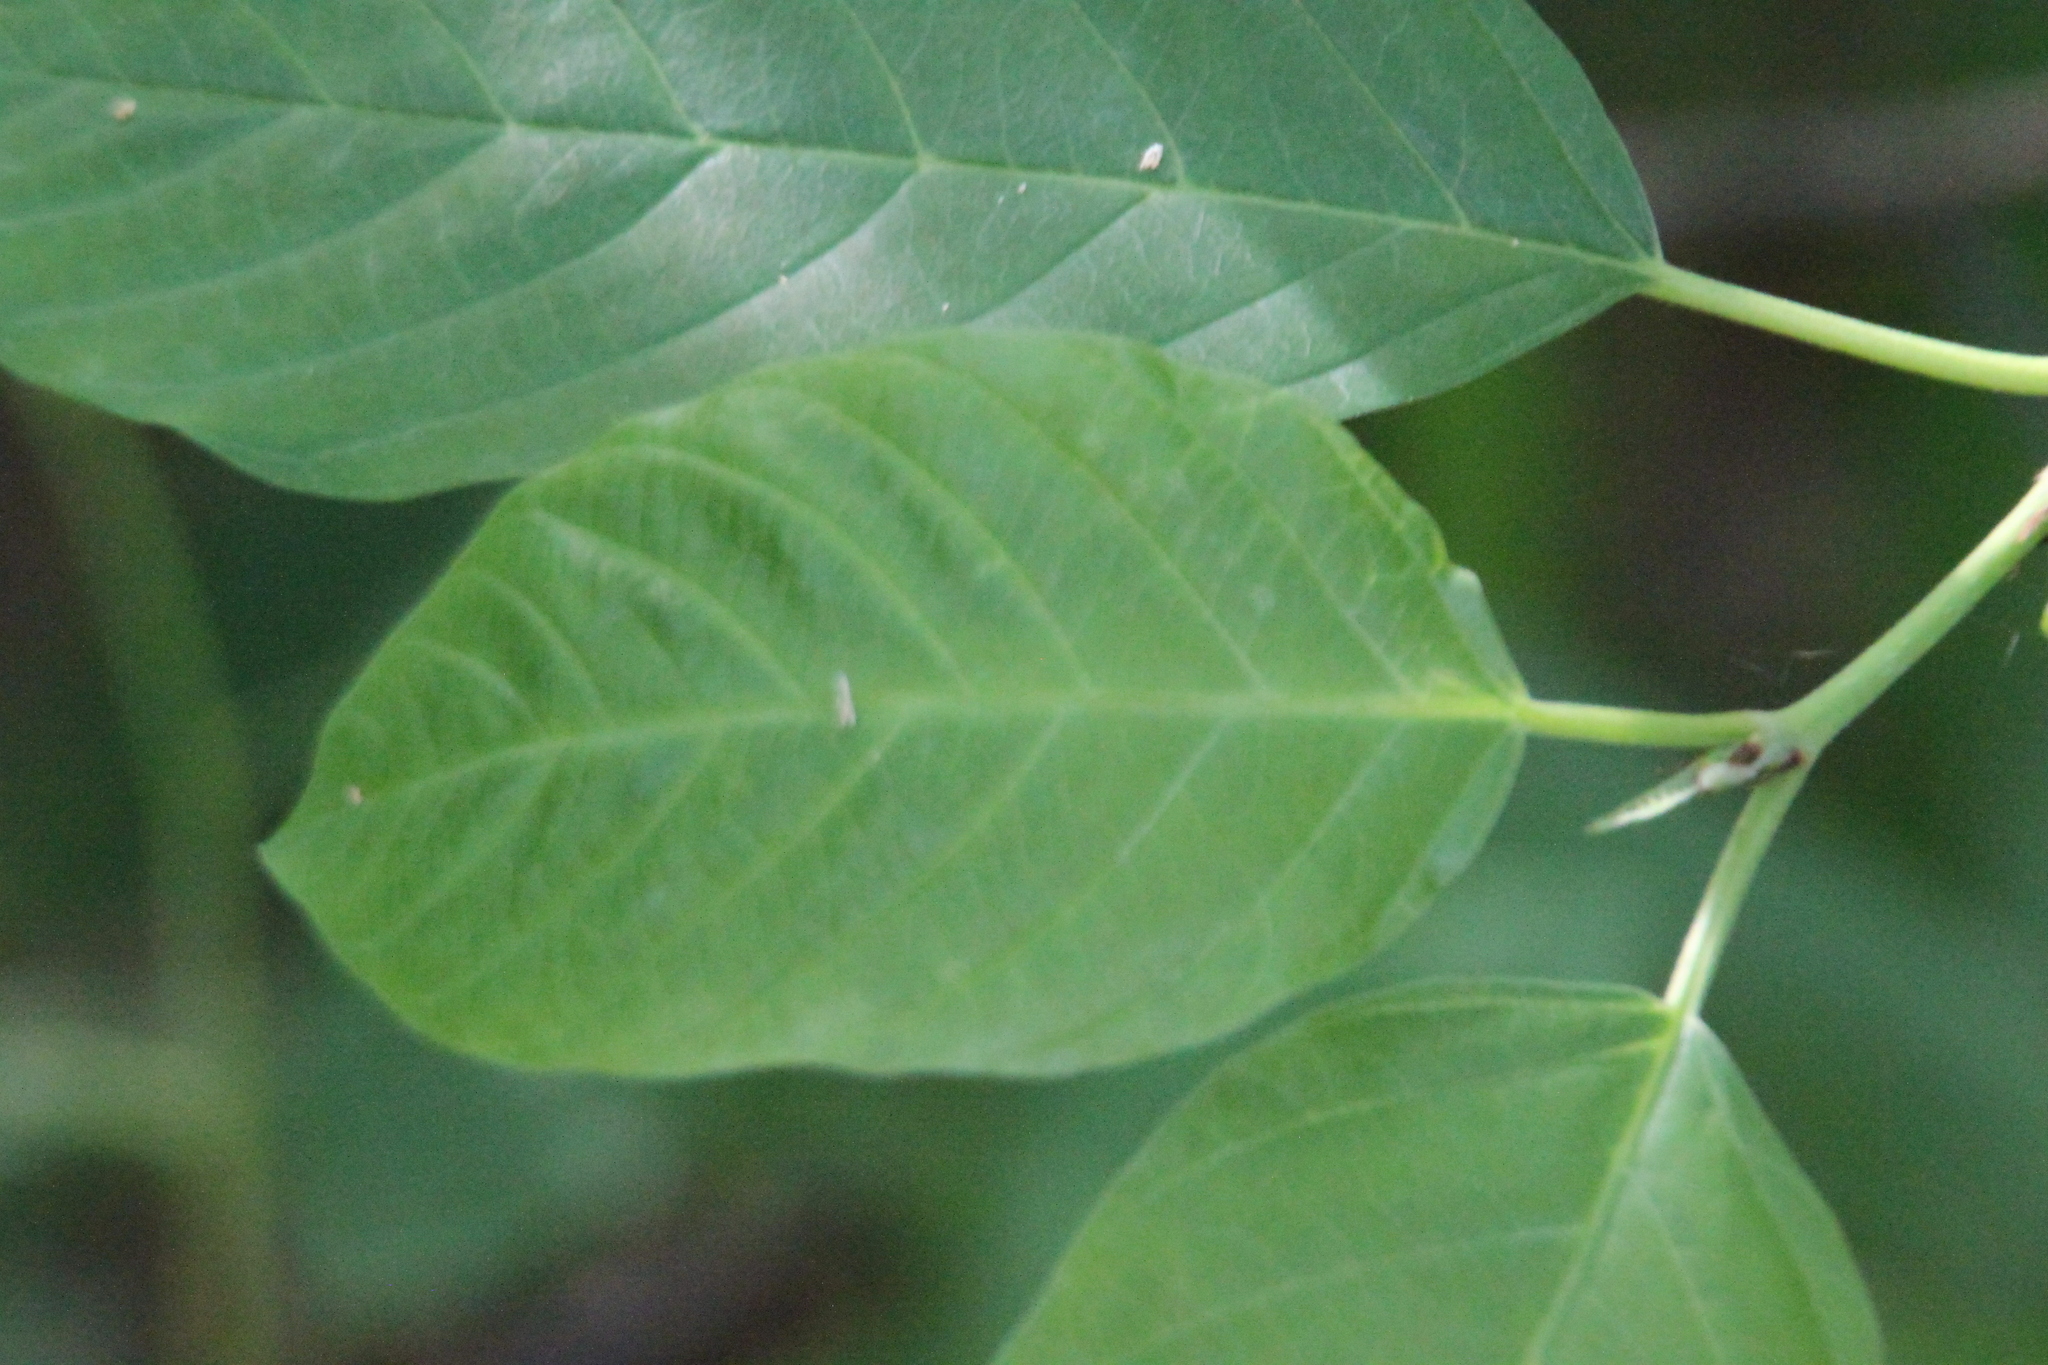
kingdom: Plantae
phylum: Tracheophyta
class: Magnoliopsida
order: Rosales
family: Rhamnaceae
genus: Frangula
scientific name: Frangula alnus
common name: Alder buckthorn
